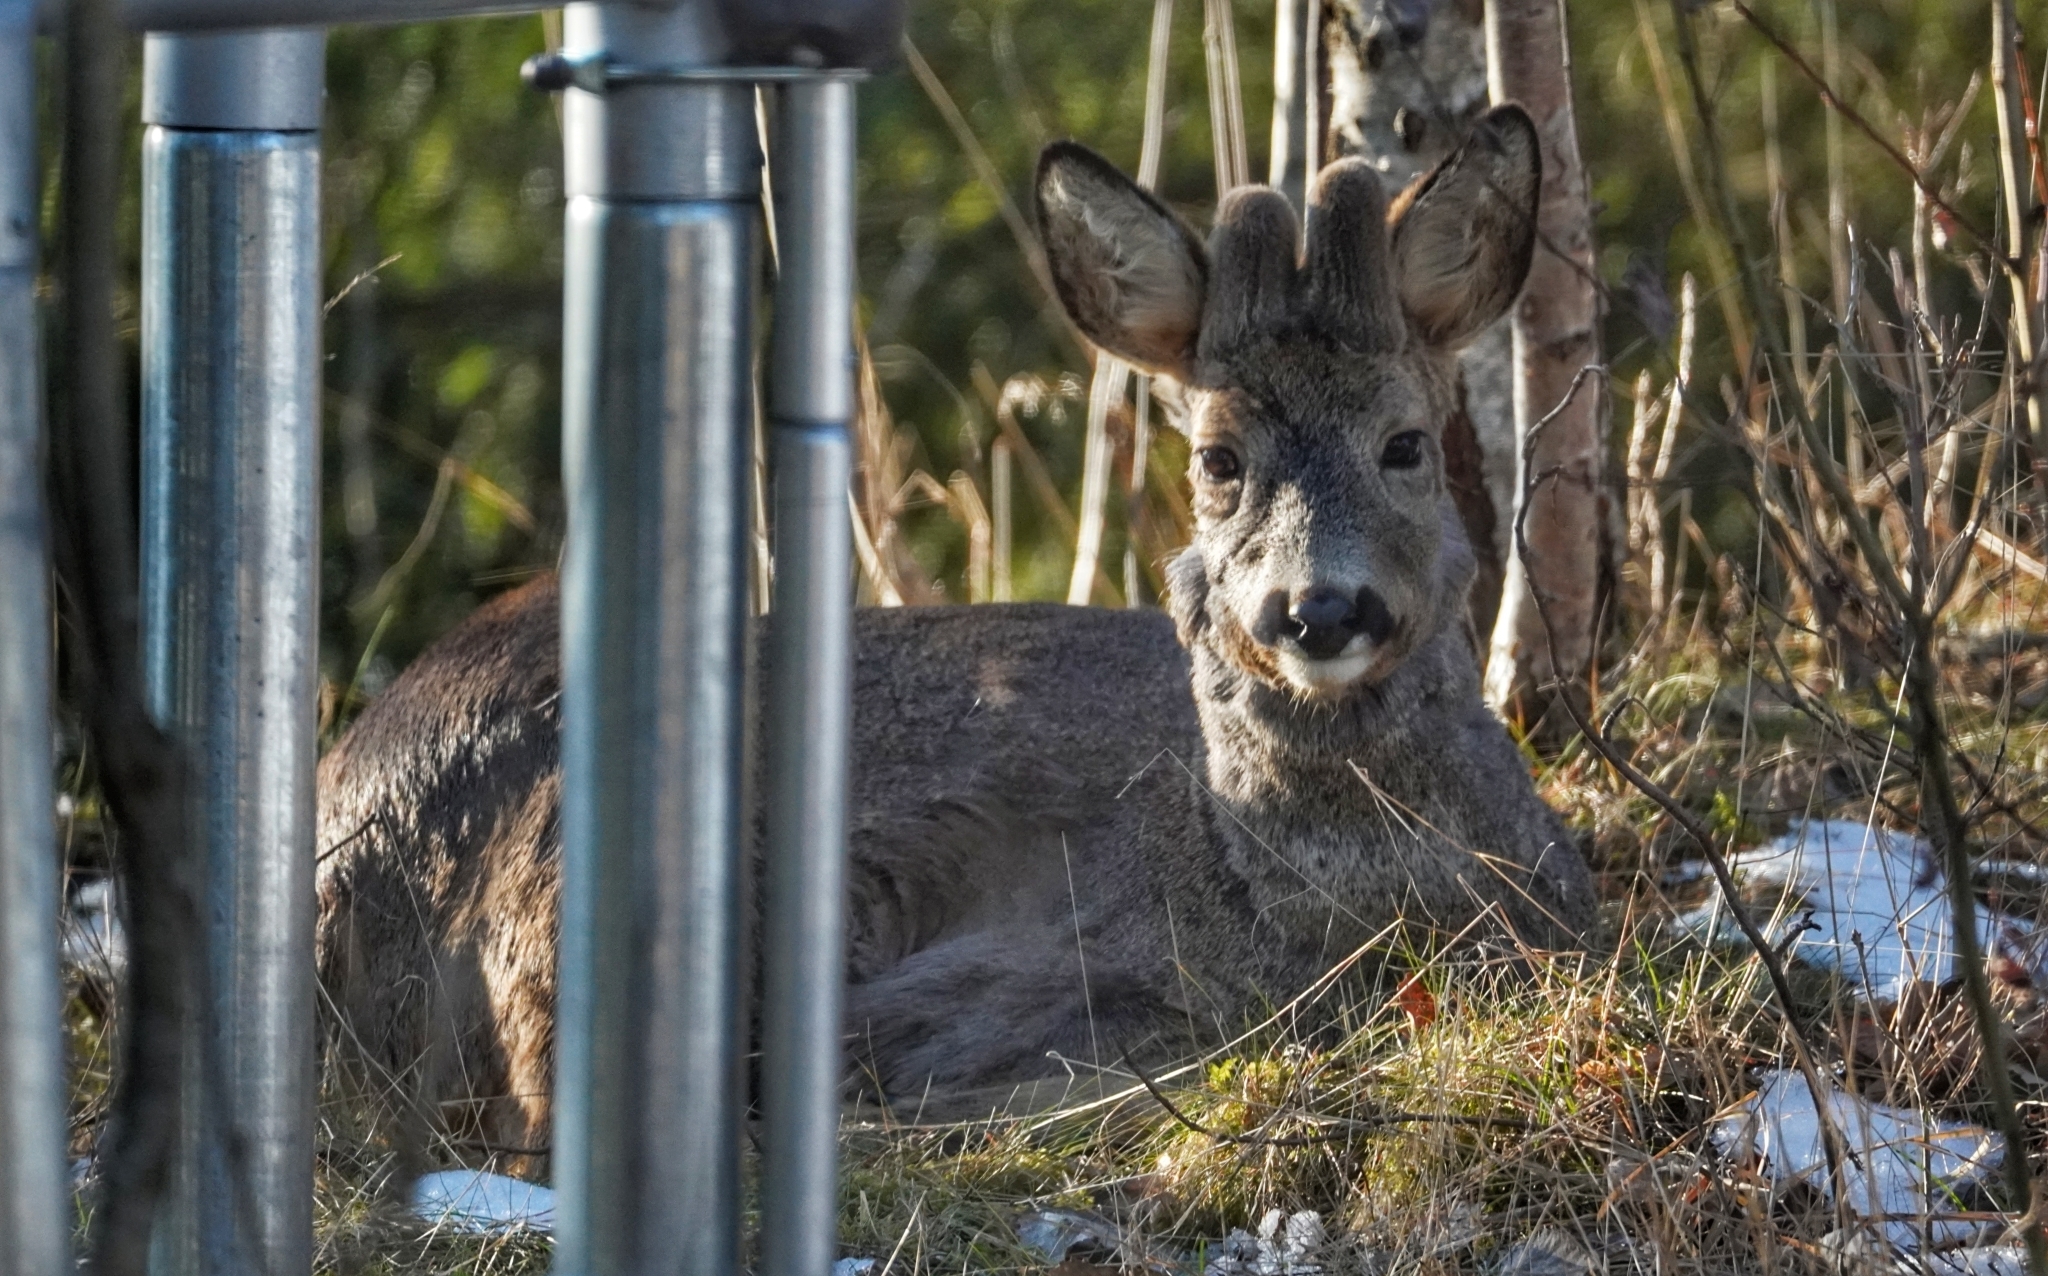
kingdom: Animalia
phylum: Chordata
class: Mammalia
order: Artiodactyla
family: Cervidae
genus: Capreolus
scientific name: Capreolus capreolus
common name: Western roe deer
